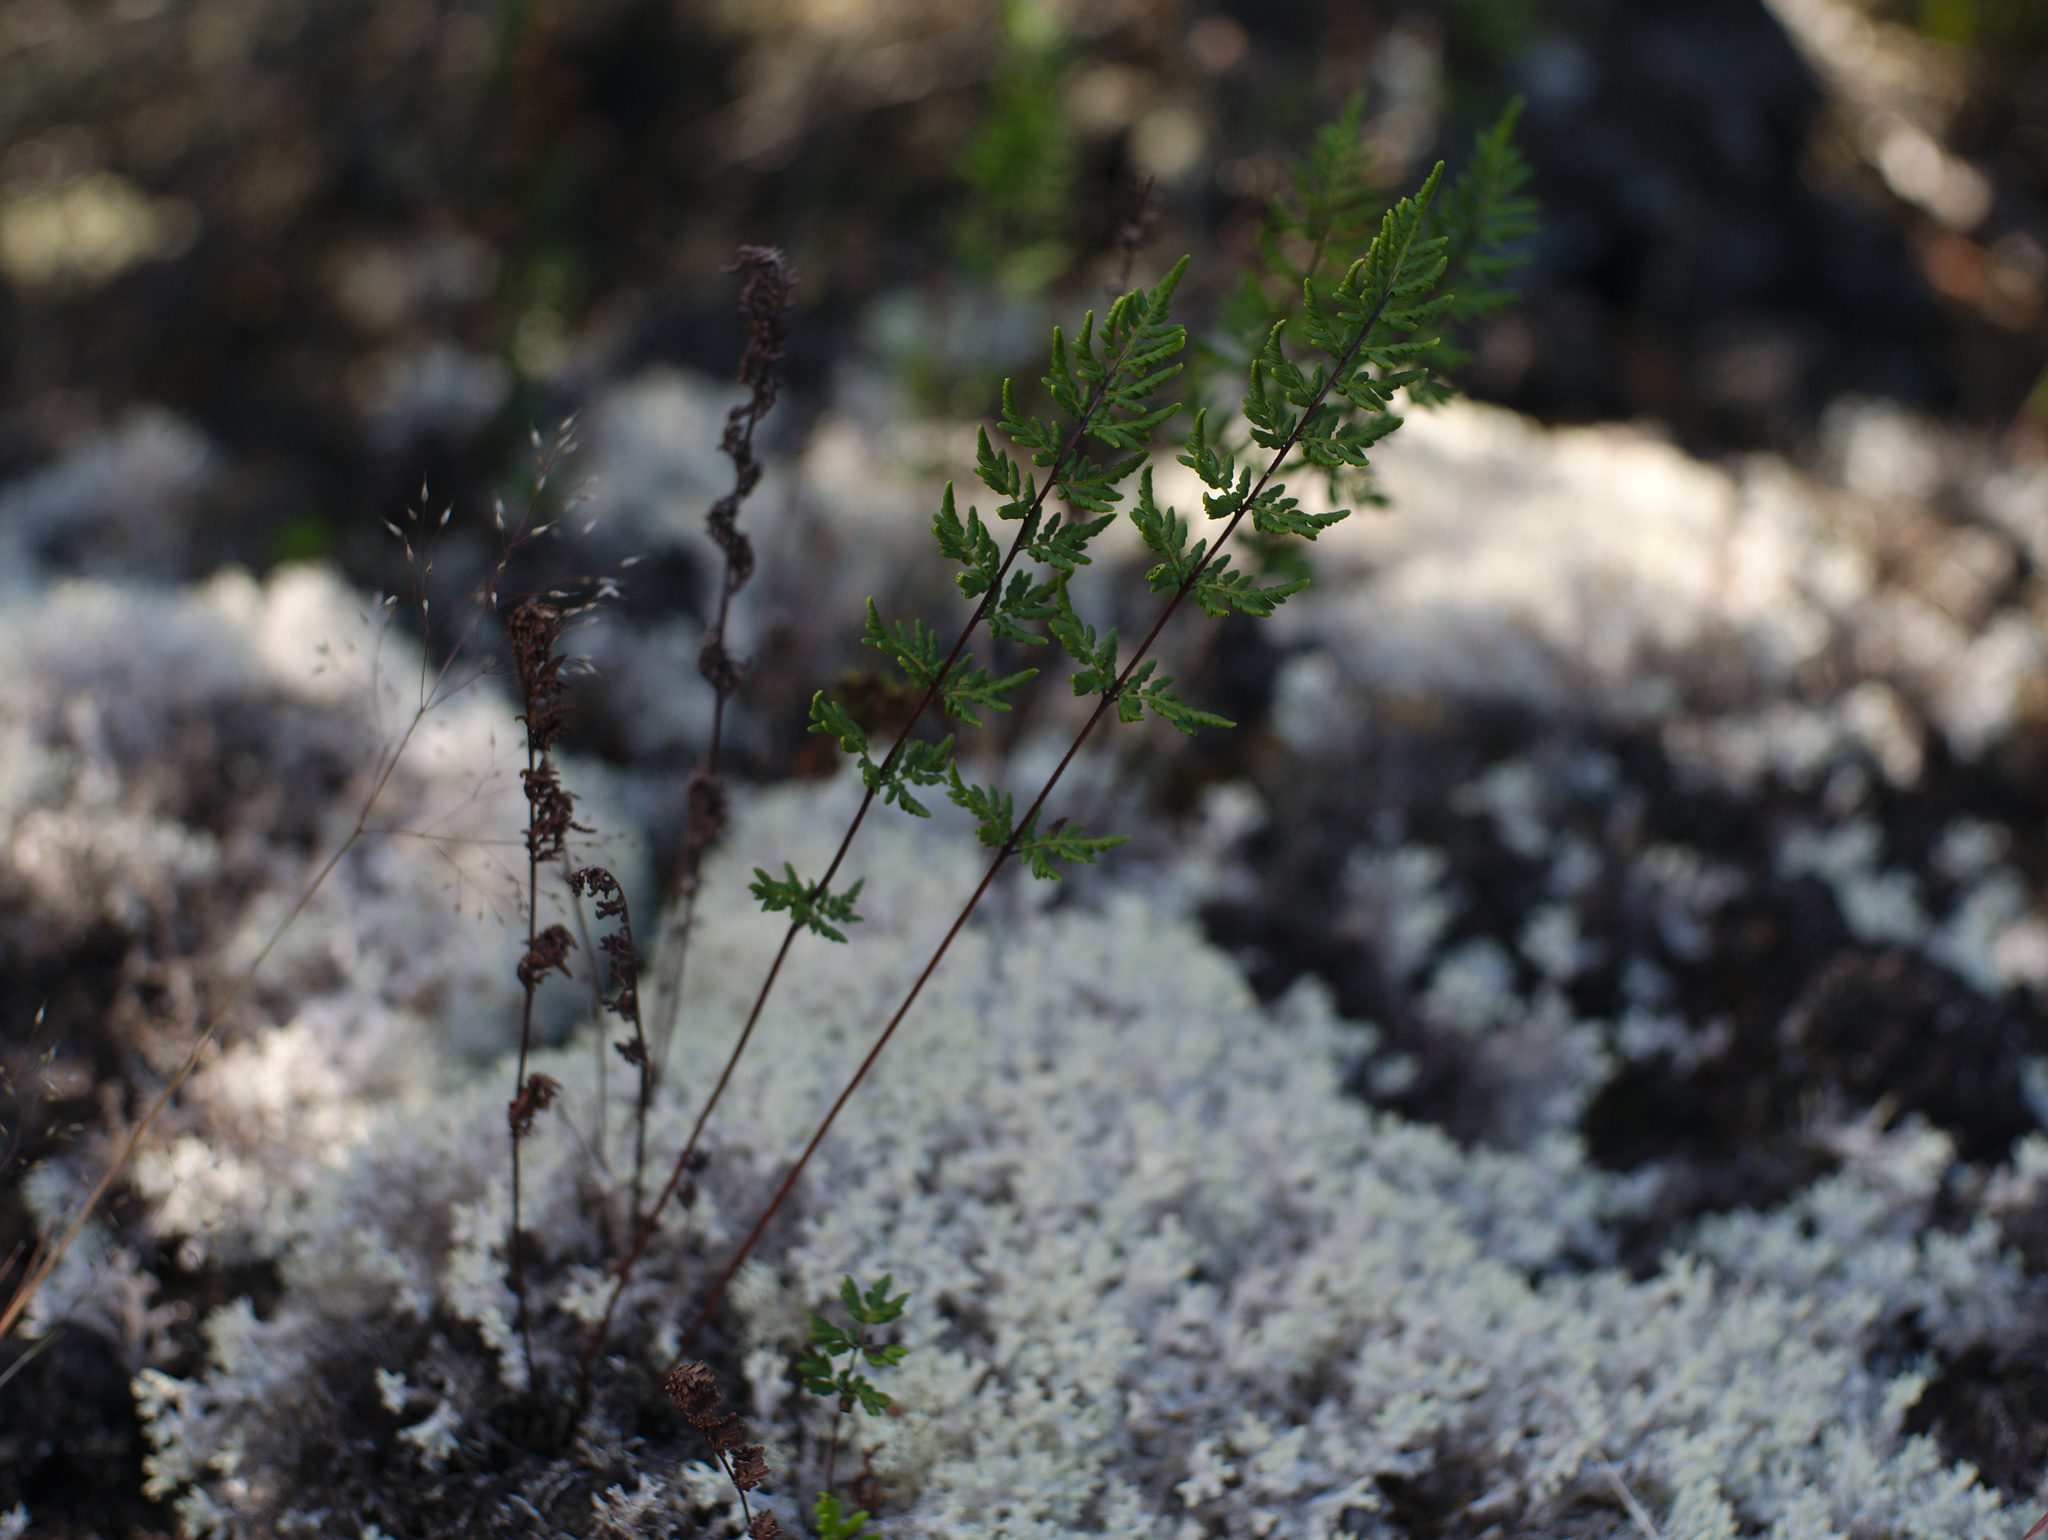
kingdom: Plantae
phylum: Tracheophyta
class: Polypodiopsida
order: Polypodiales
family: Pteridaceae
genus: Cheilanthes
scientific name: Cheilanthes sieberi
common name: Mulga fern
